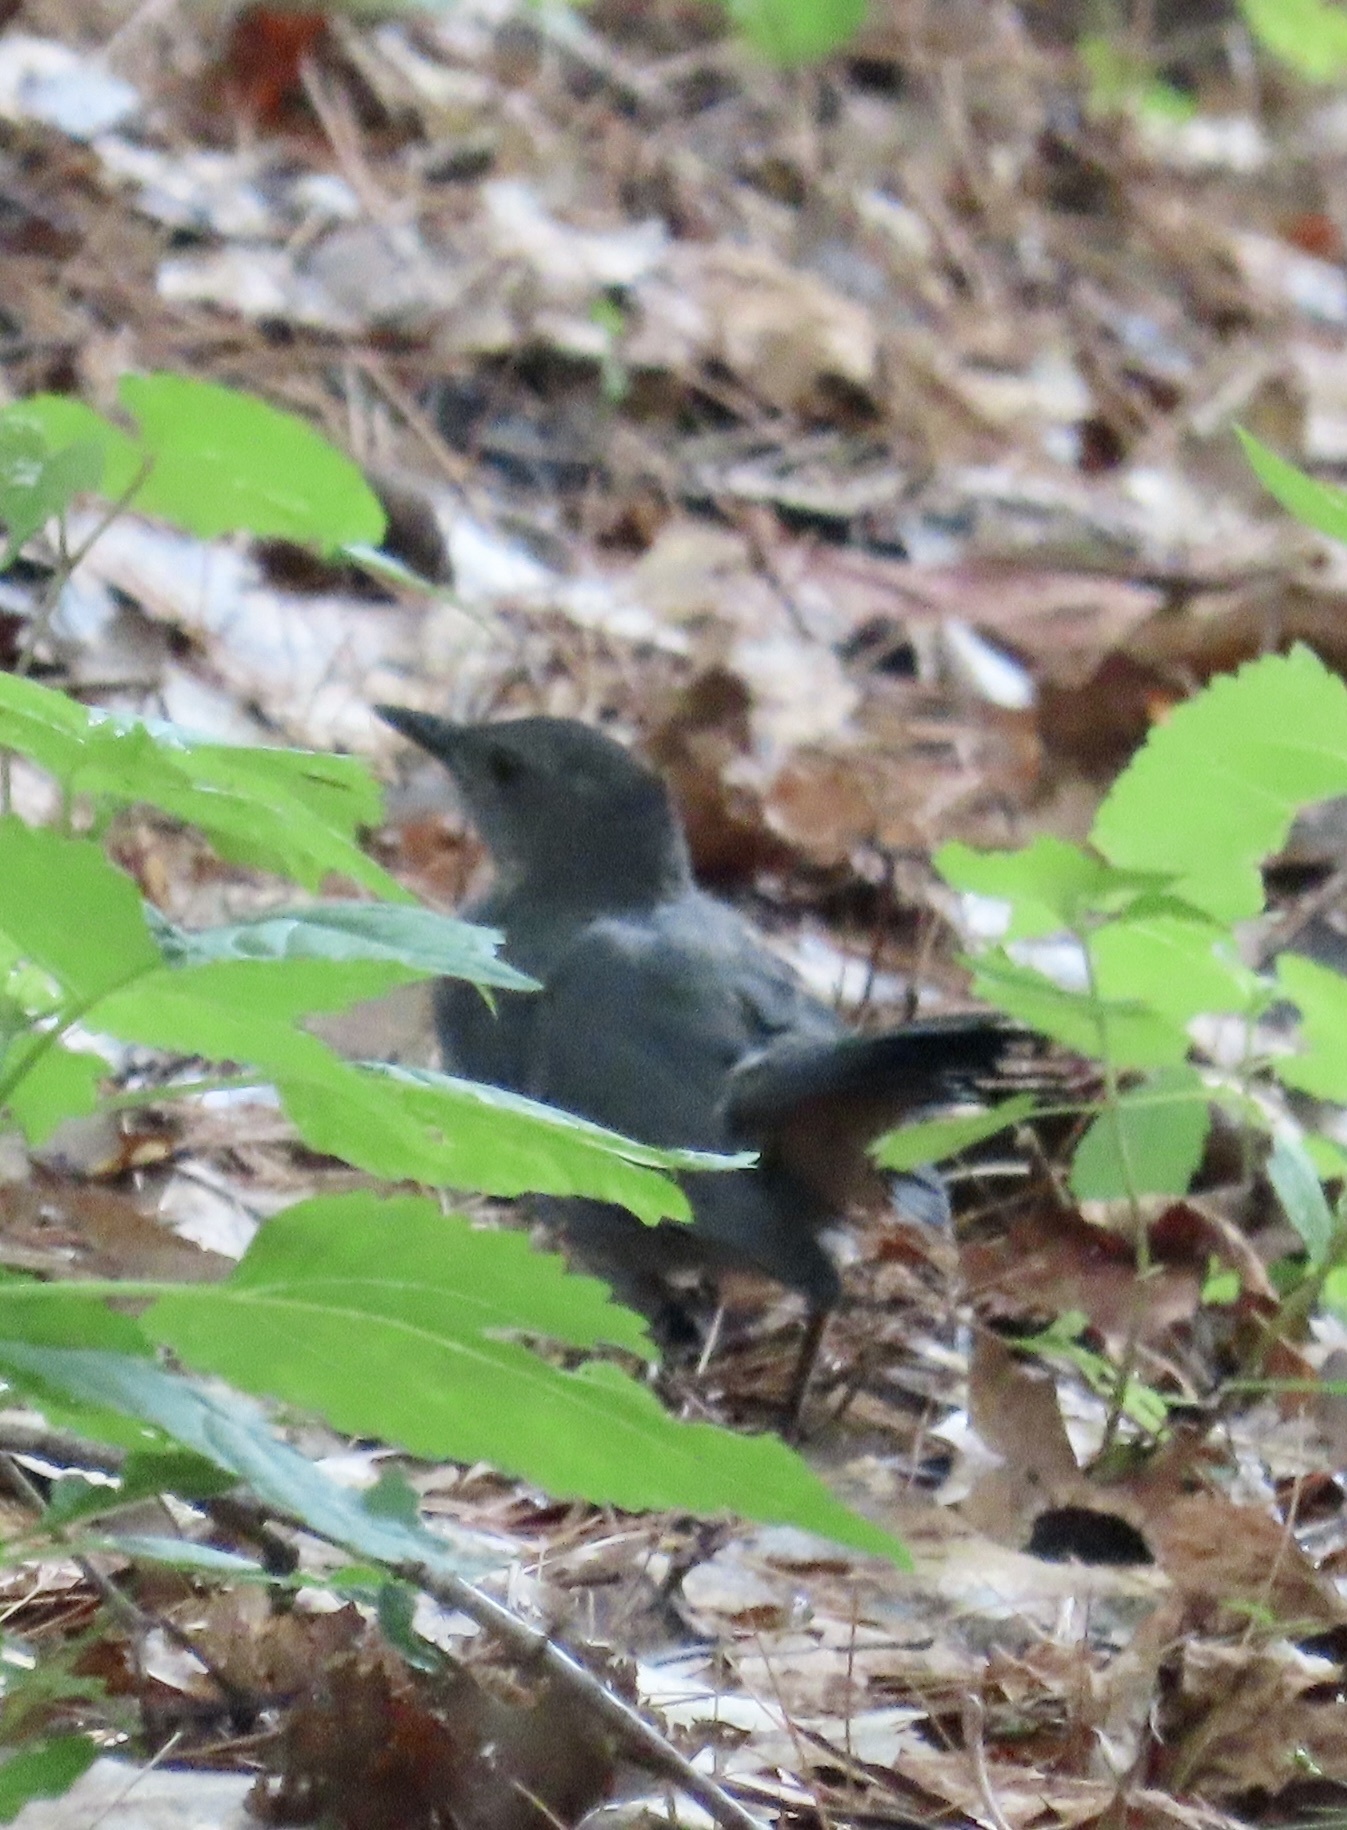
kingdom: Animalia
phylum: Chordata
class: Aves
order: Passeriformes
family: Mimidae
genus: Dumetella
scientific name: Dumetella carolinensis
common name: Gray catbird
